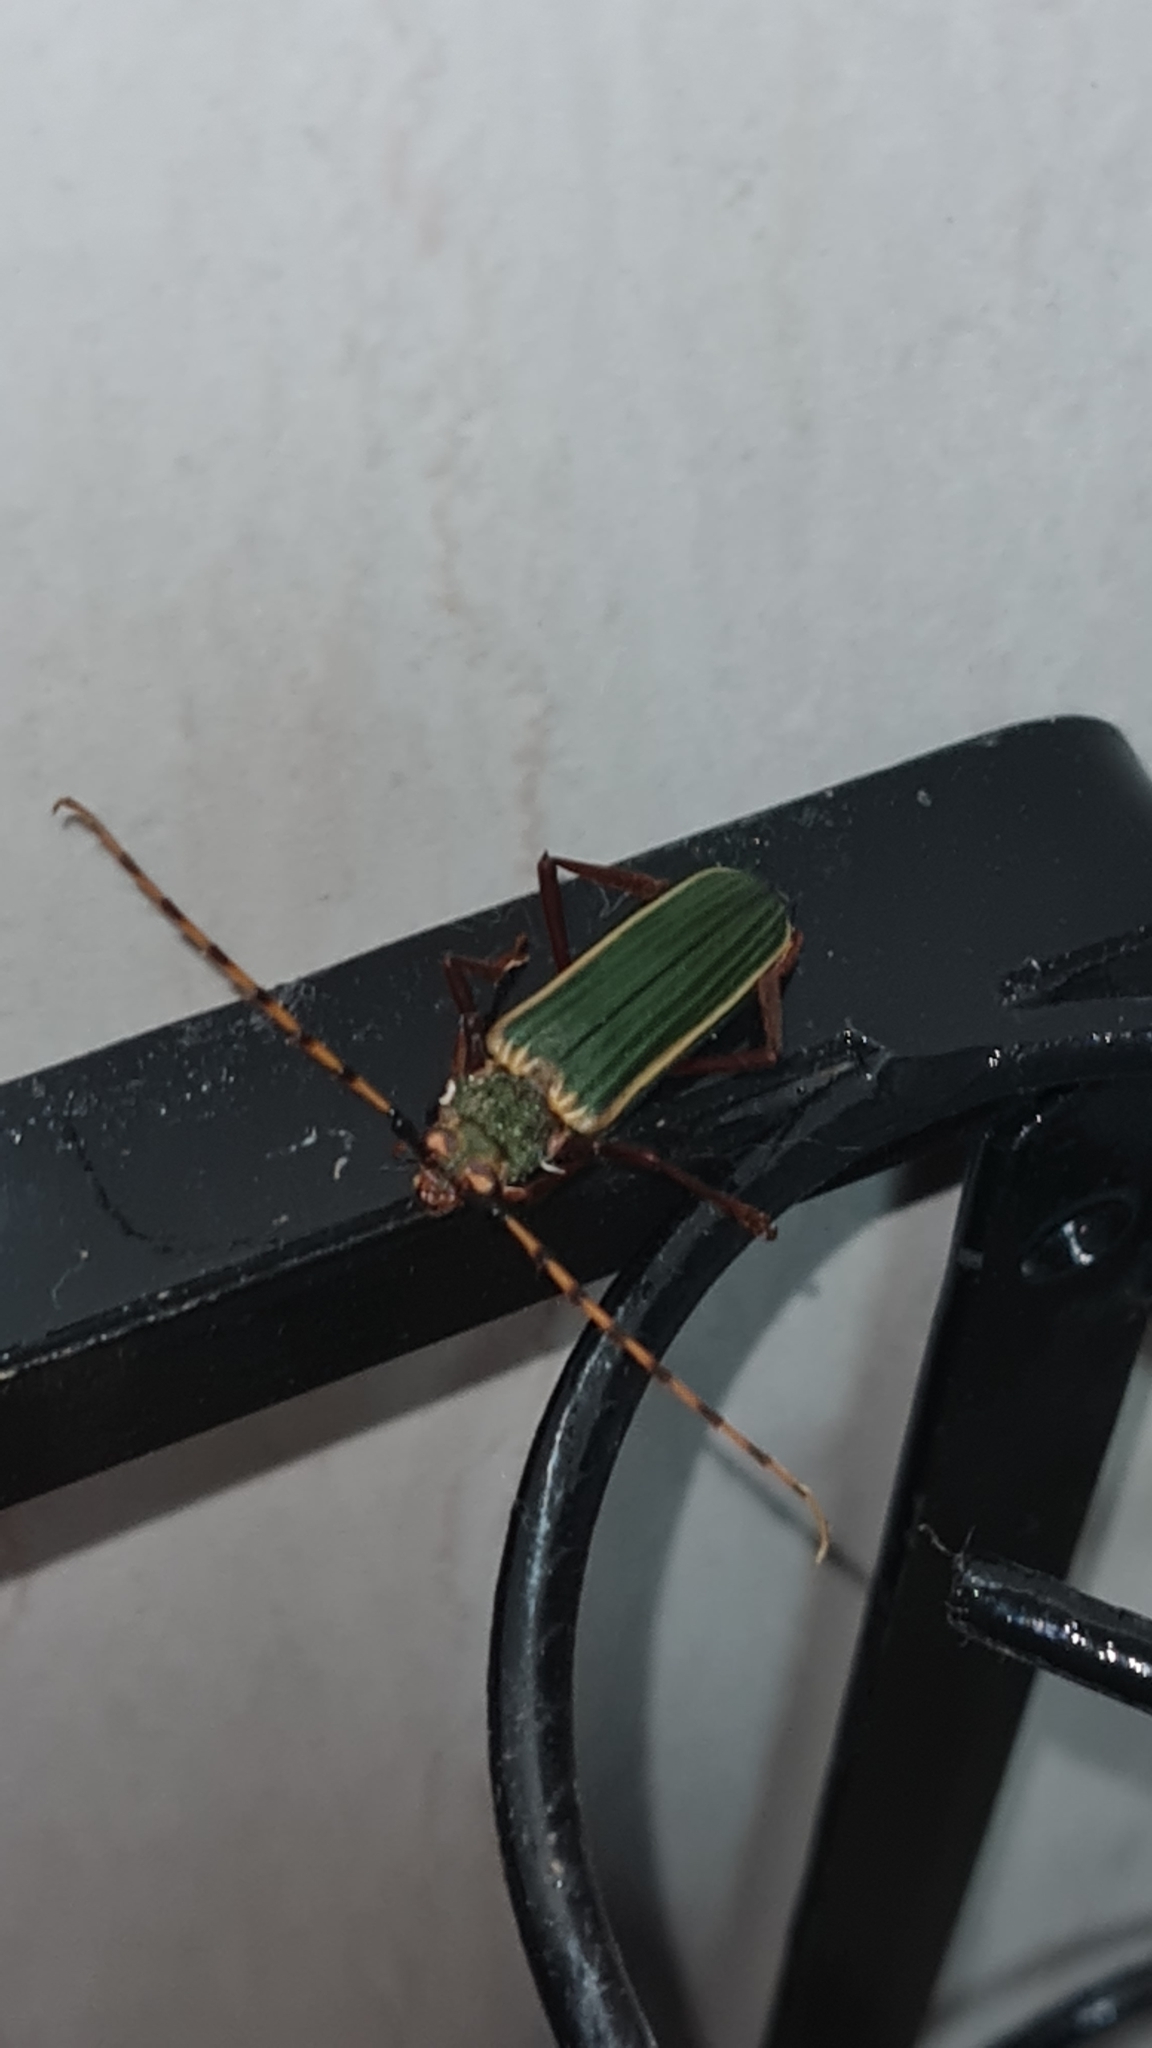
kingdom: Animalia
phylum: Arthropoda
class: Insecta
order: Coleoptera
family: Cerambycidae
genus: Chlorida
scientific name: Chlorida costata
